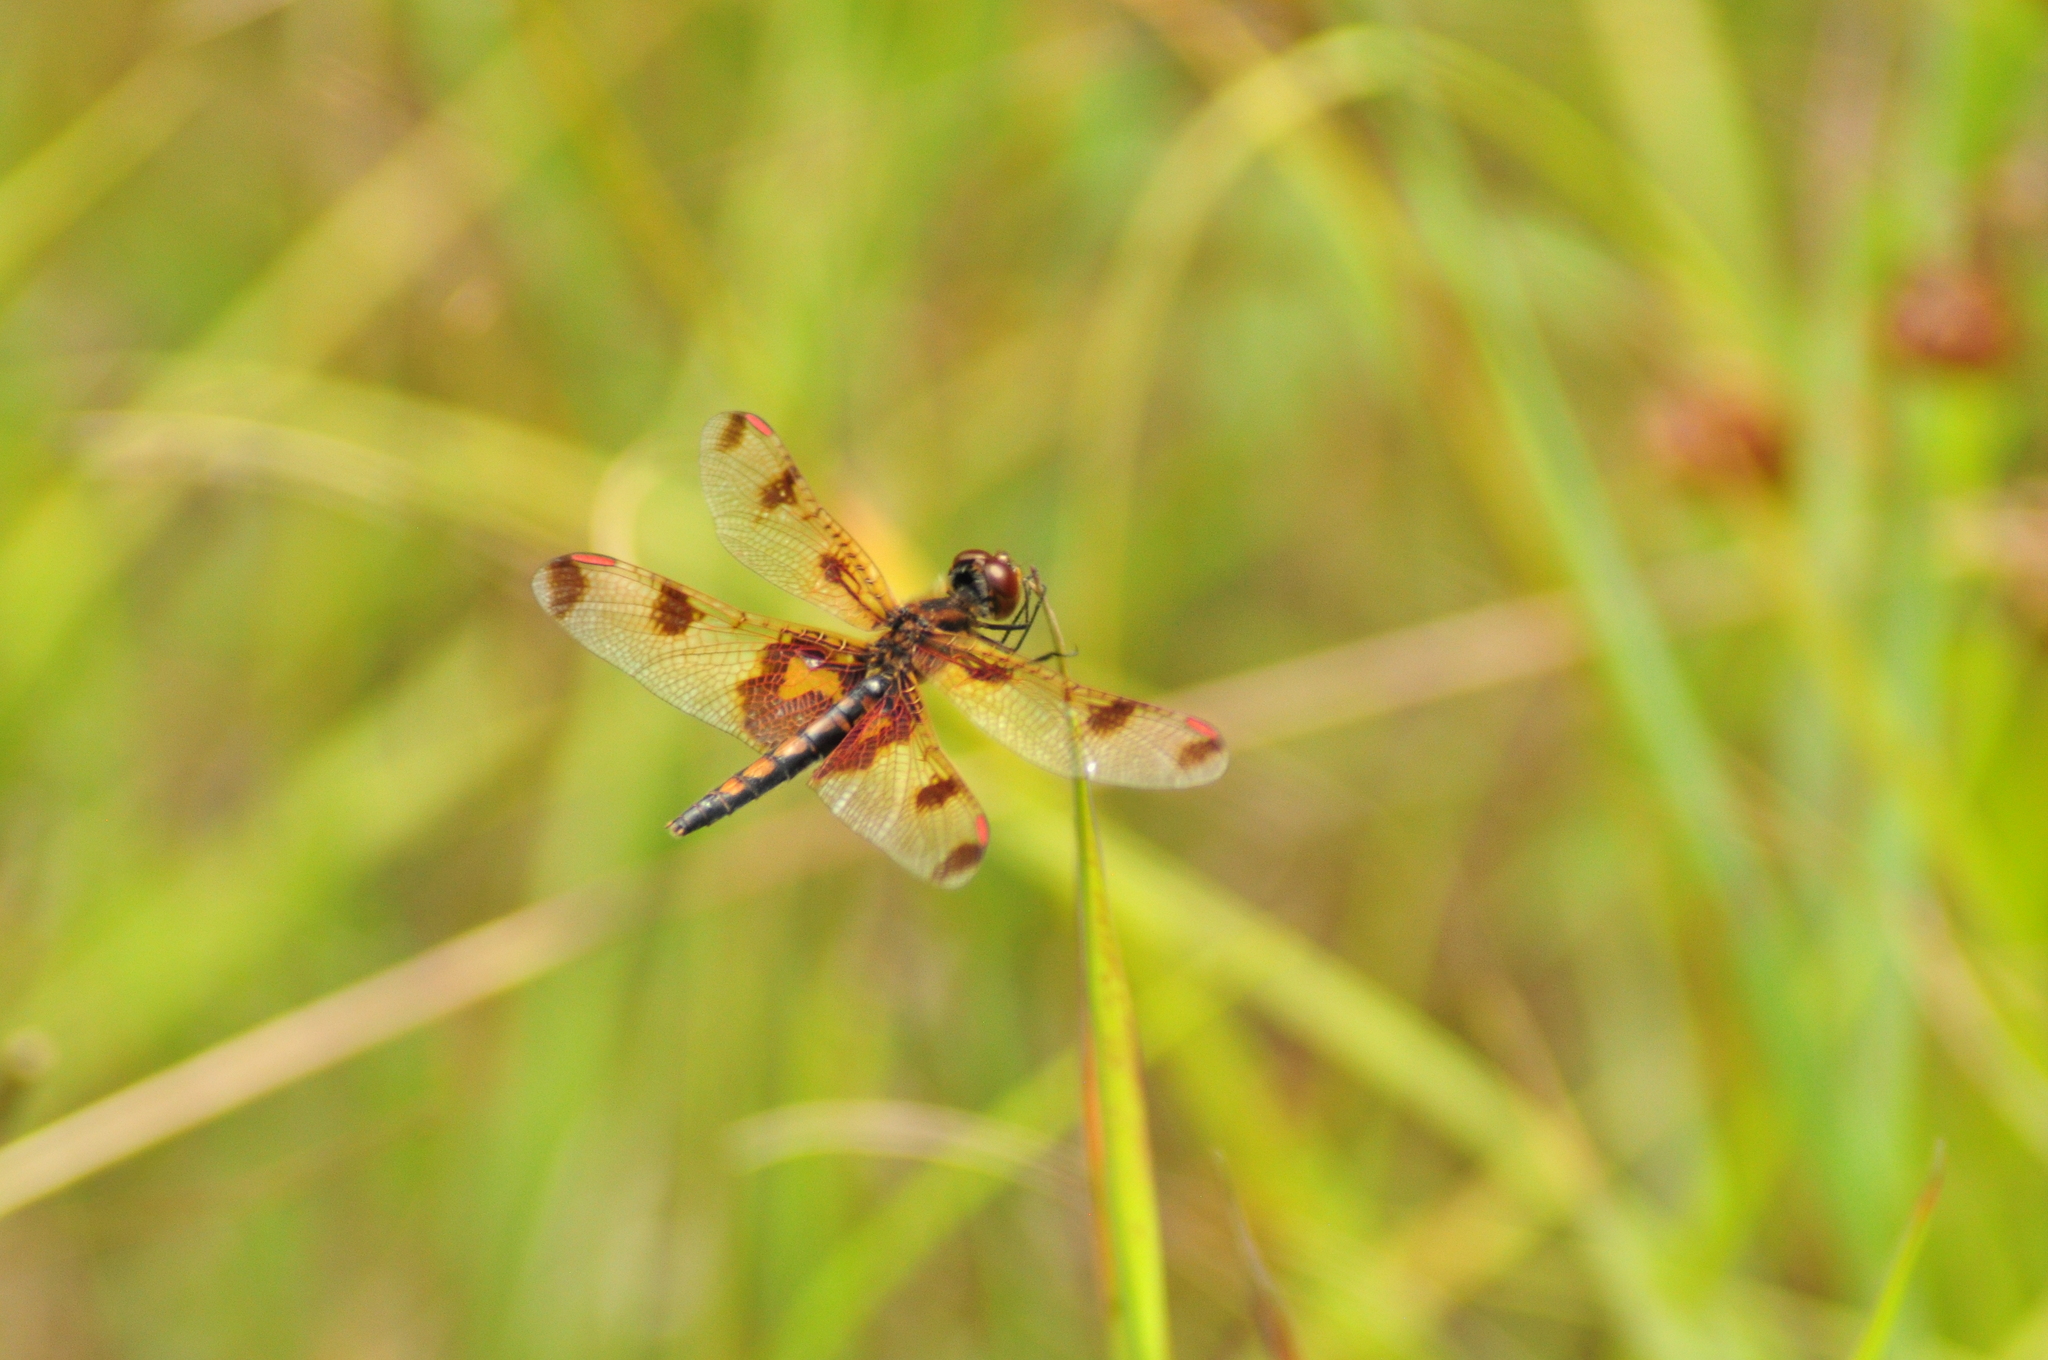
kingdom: Animalia
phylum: Arthropoda
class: Insecta
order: Odonata
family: Libellulidae
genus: Celithemis
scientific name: Celithemis elisa
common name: Calico pennant
